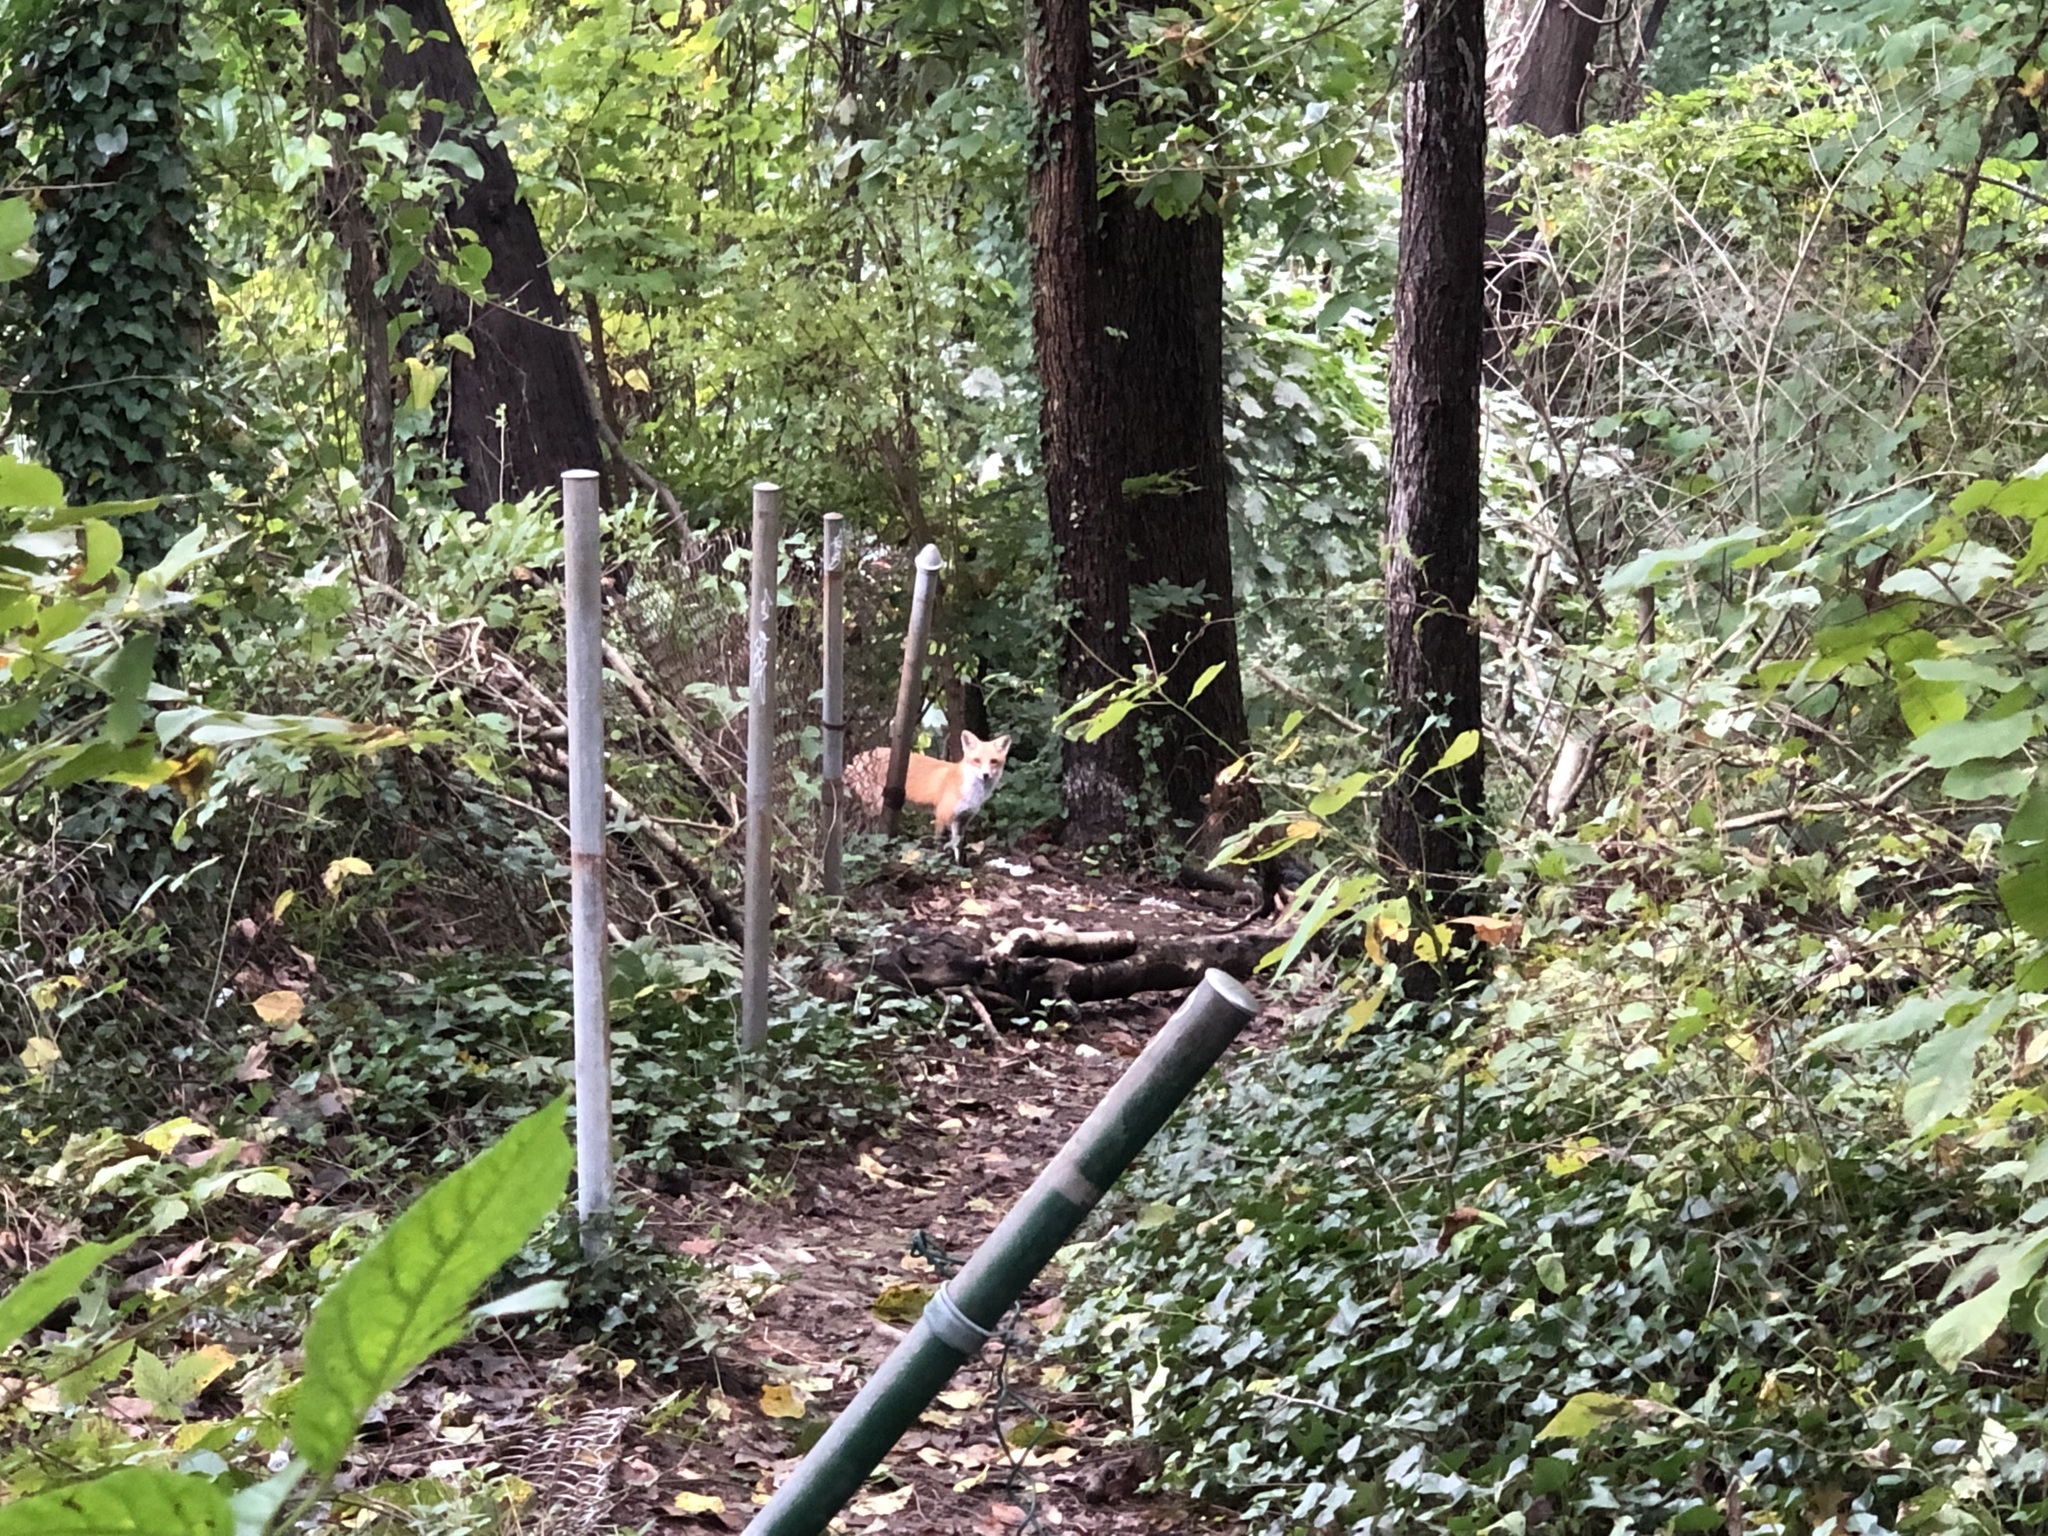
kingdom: Animalia
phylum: Chordata
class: Mammalia
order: Carnivora
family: Canidae
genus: Vulpes
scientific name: Vulpes vulpes
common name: Red fox
